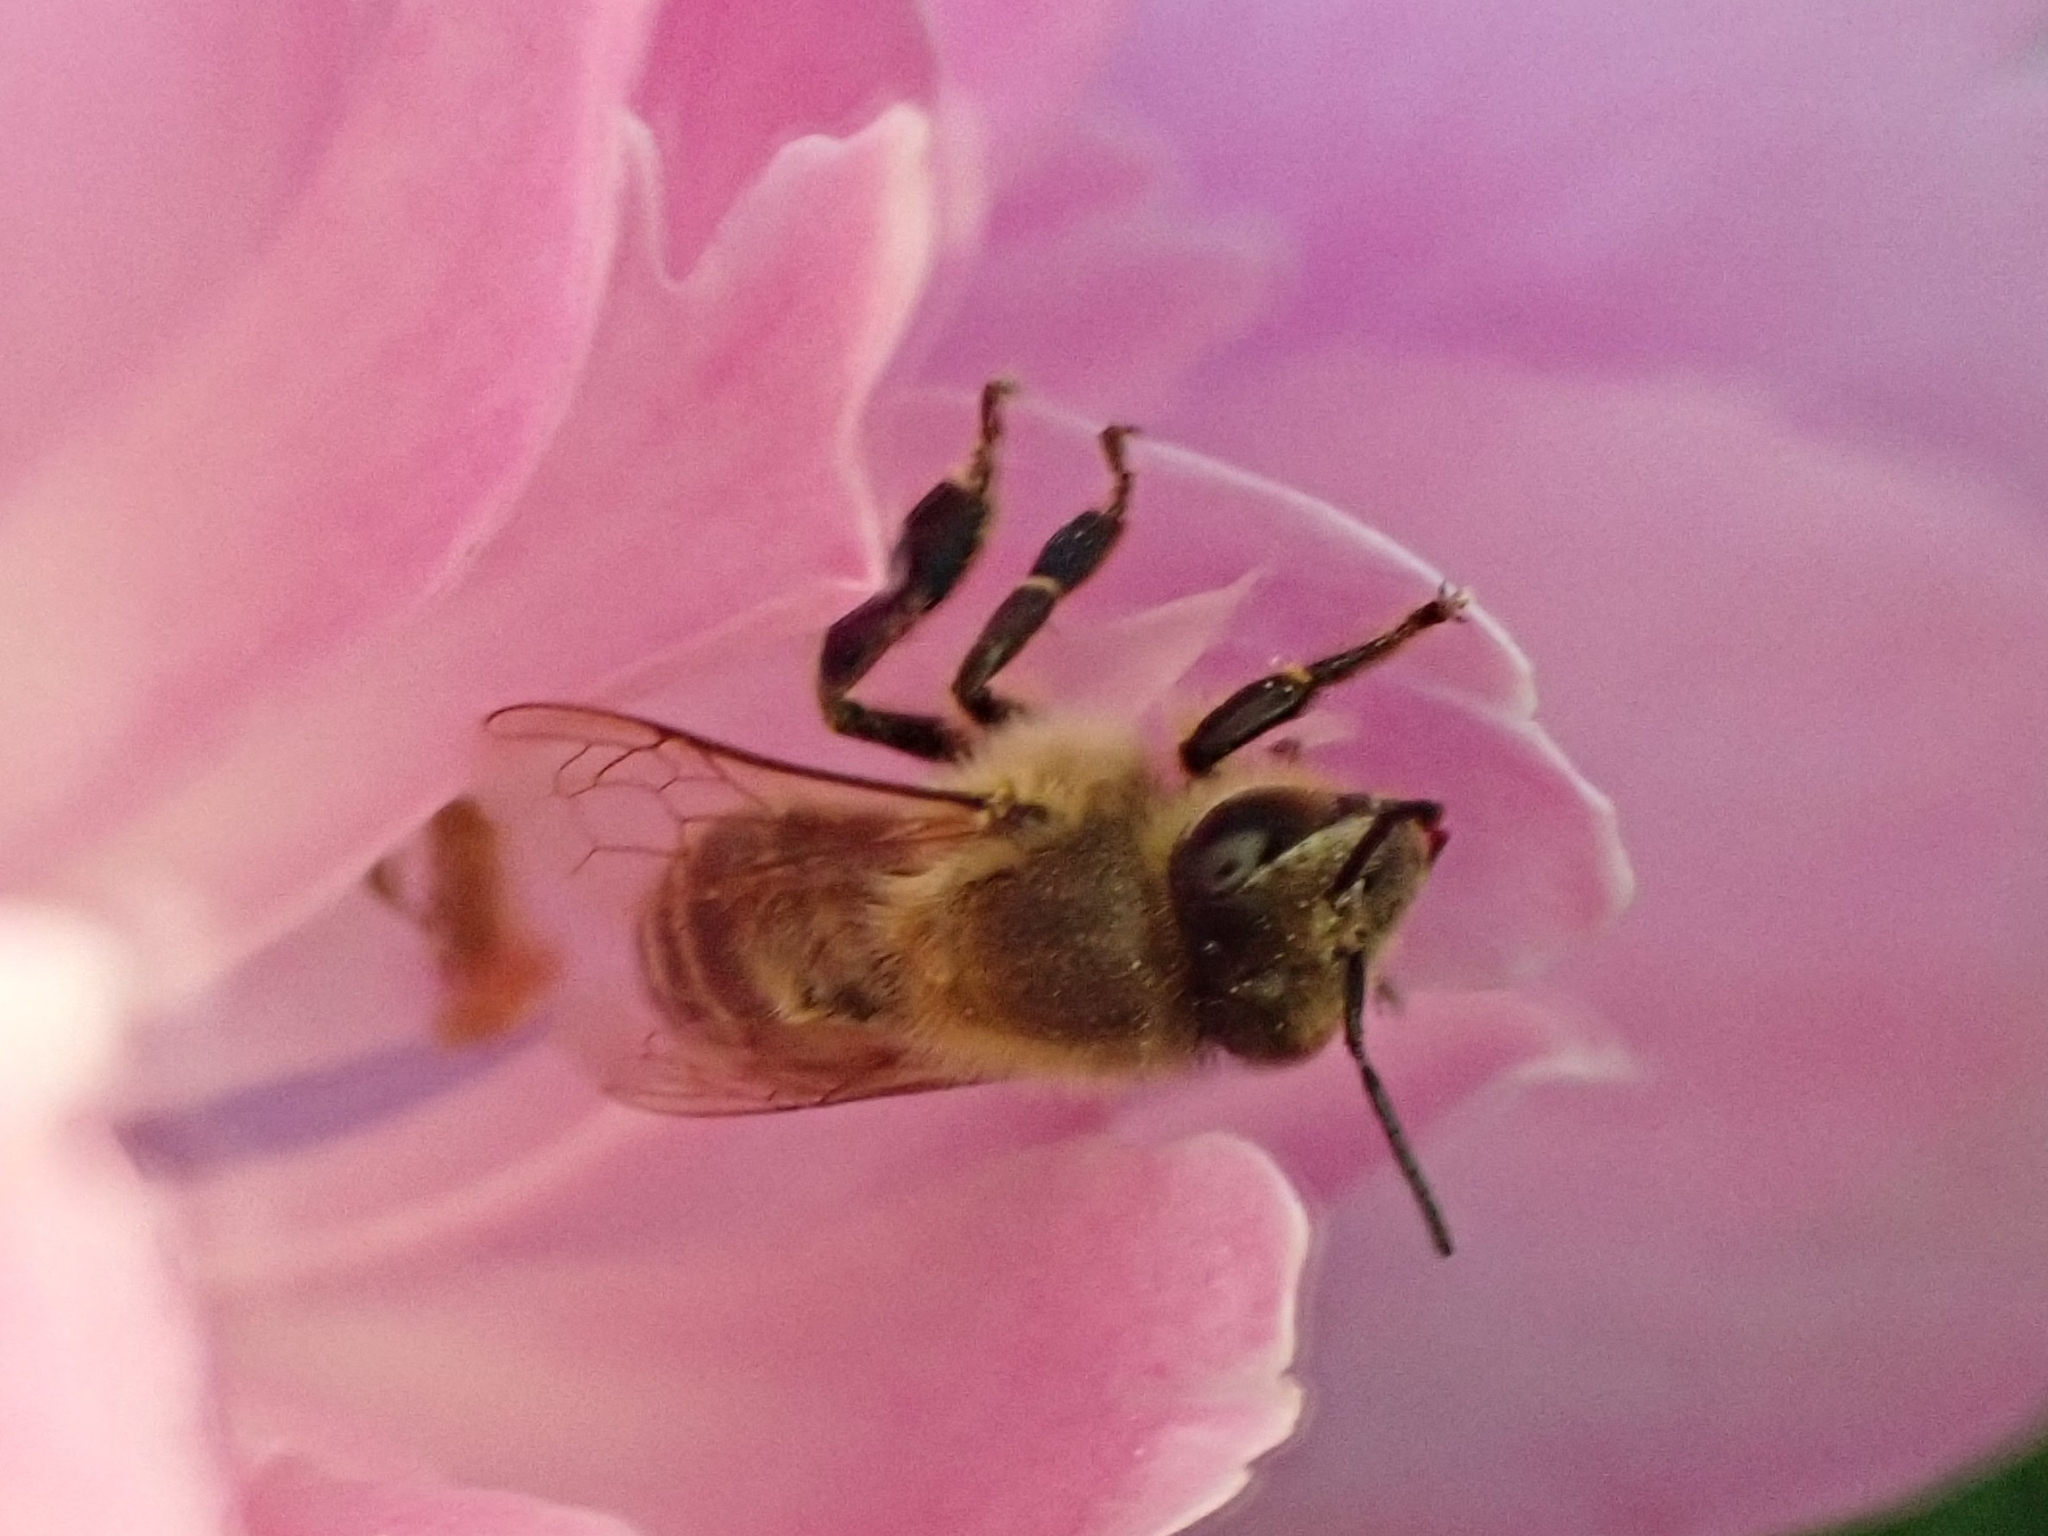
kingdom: Animalia
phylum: Arthropoda
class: Insecta
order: Hymenoptera
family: Apidae
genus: Apis
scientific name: Apis mellifera
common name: Honey bee
